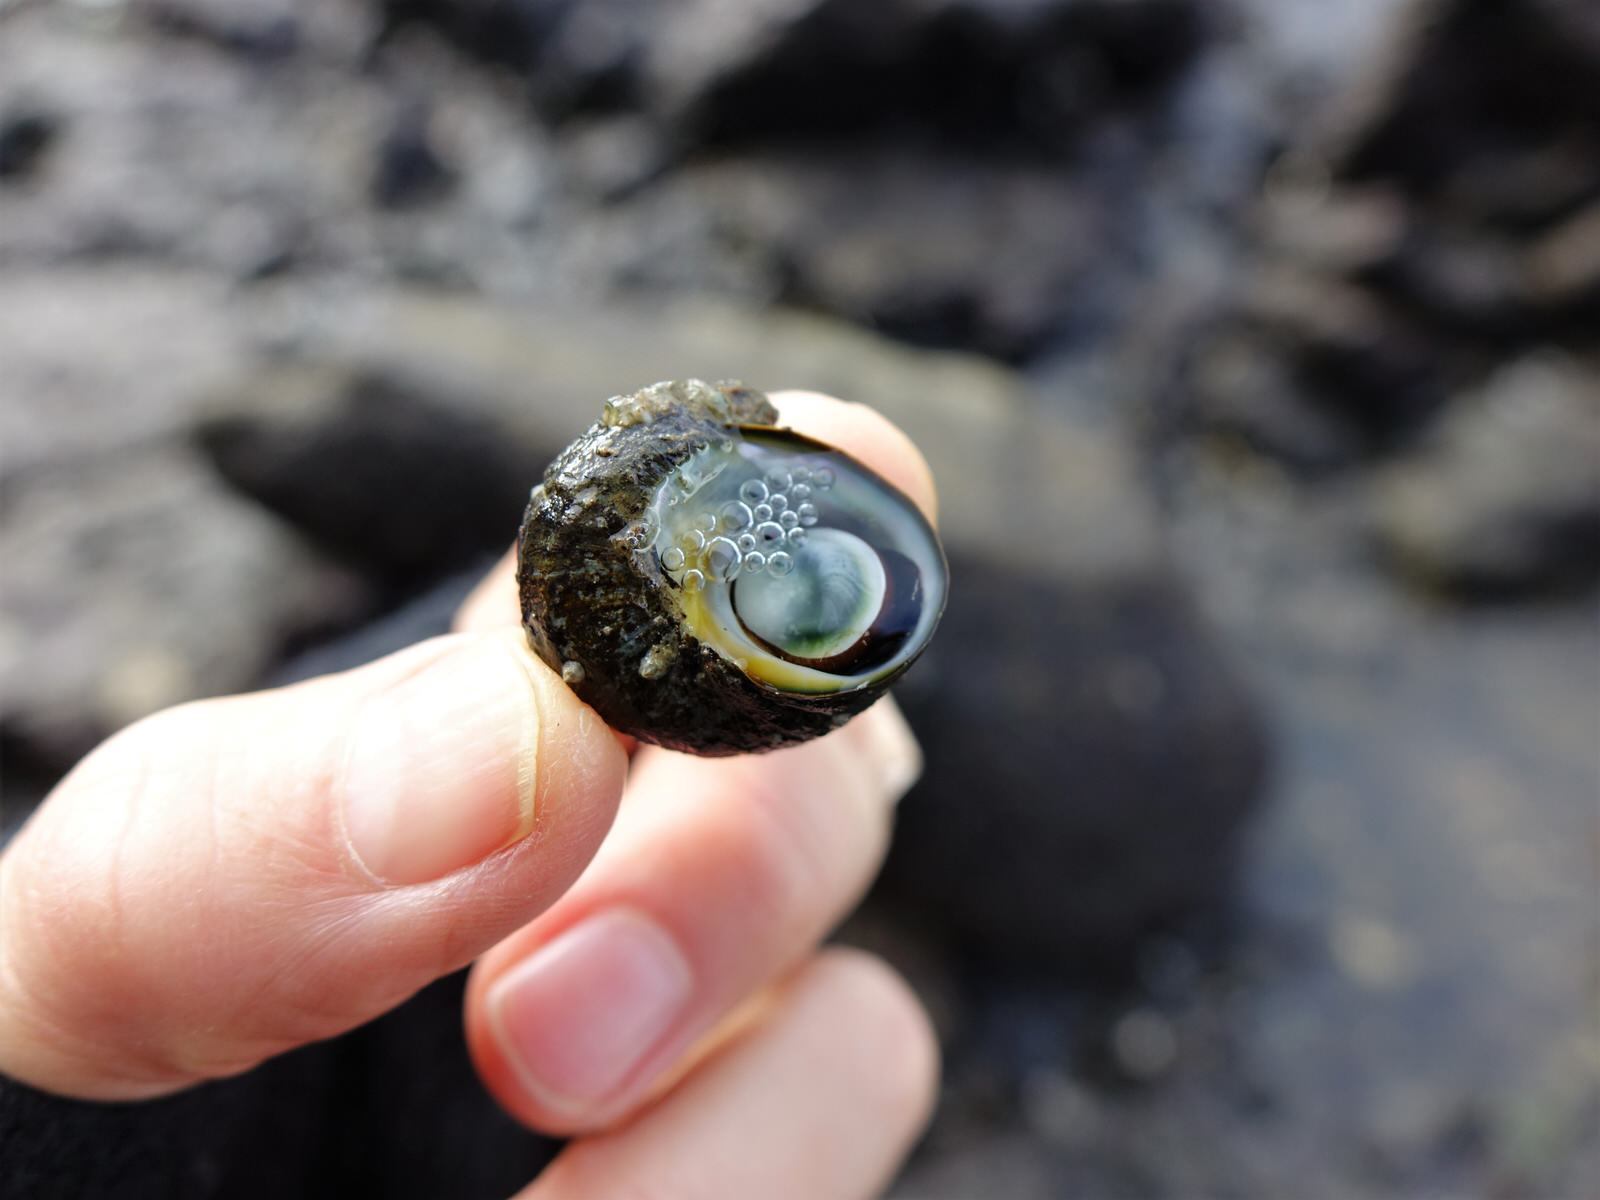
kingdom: Animalia
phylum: Mollusca
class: Gastropoda
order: Trochida
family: Turbinidae
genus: Lunella
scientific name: Lunella smaragda
